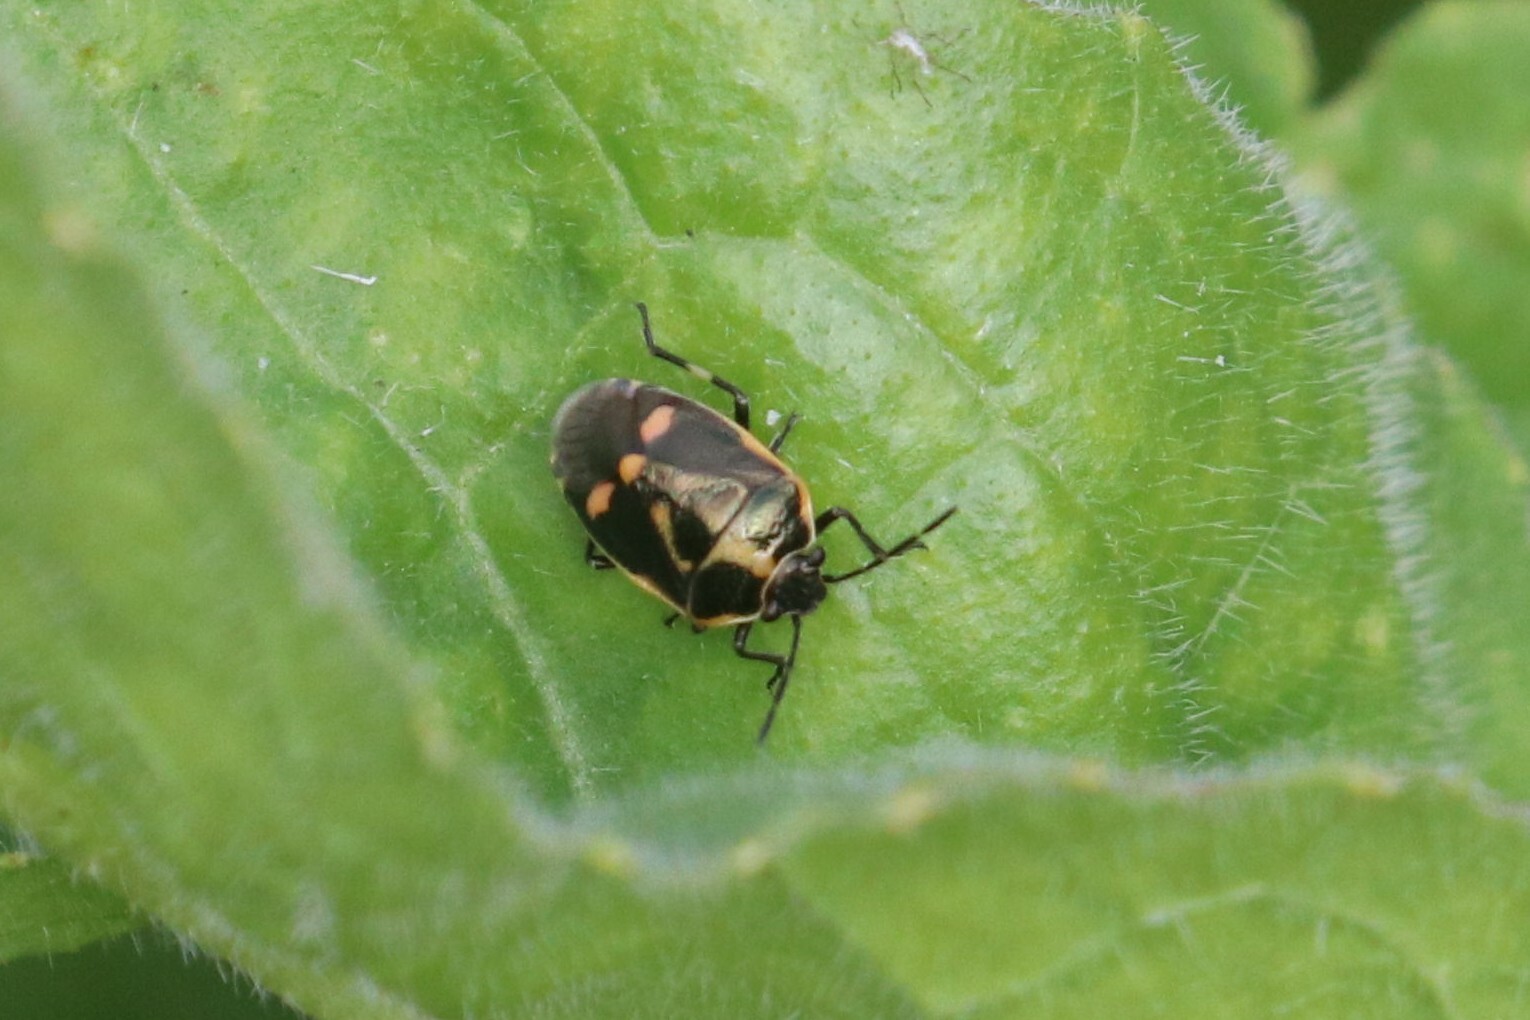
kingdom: Animalia
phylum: Arthropoda
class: Insecta
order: Hemiptera
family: Pentatomidae
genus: Eurydema
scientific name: Eurydema oleracea
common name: Cabbage bug
